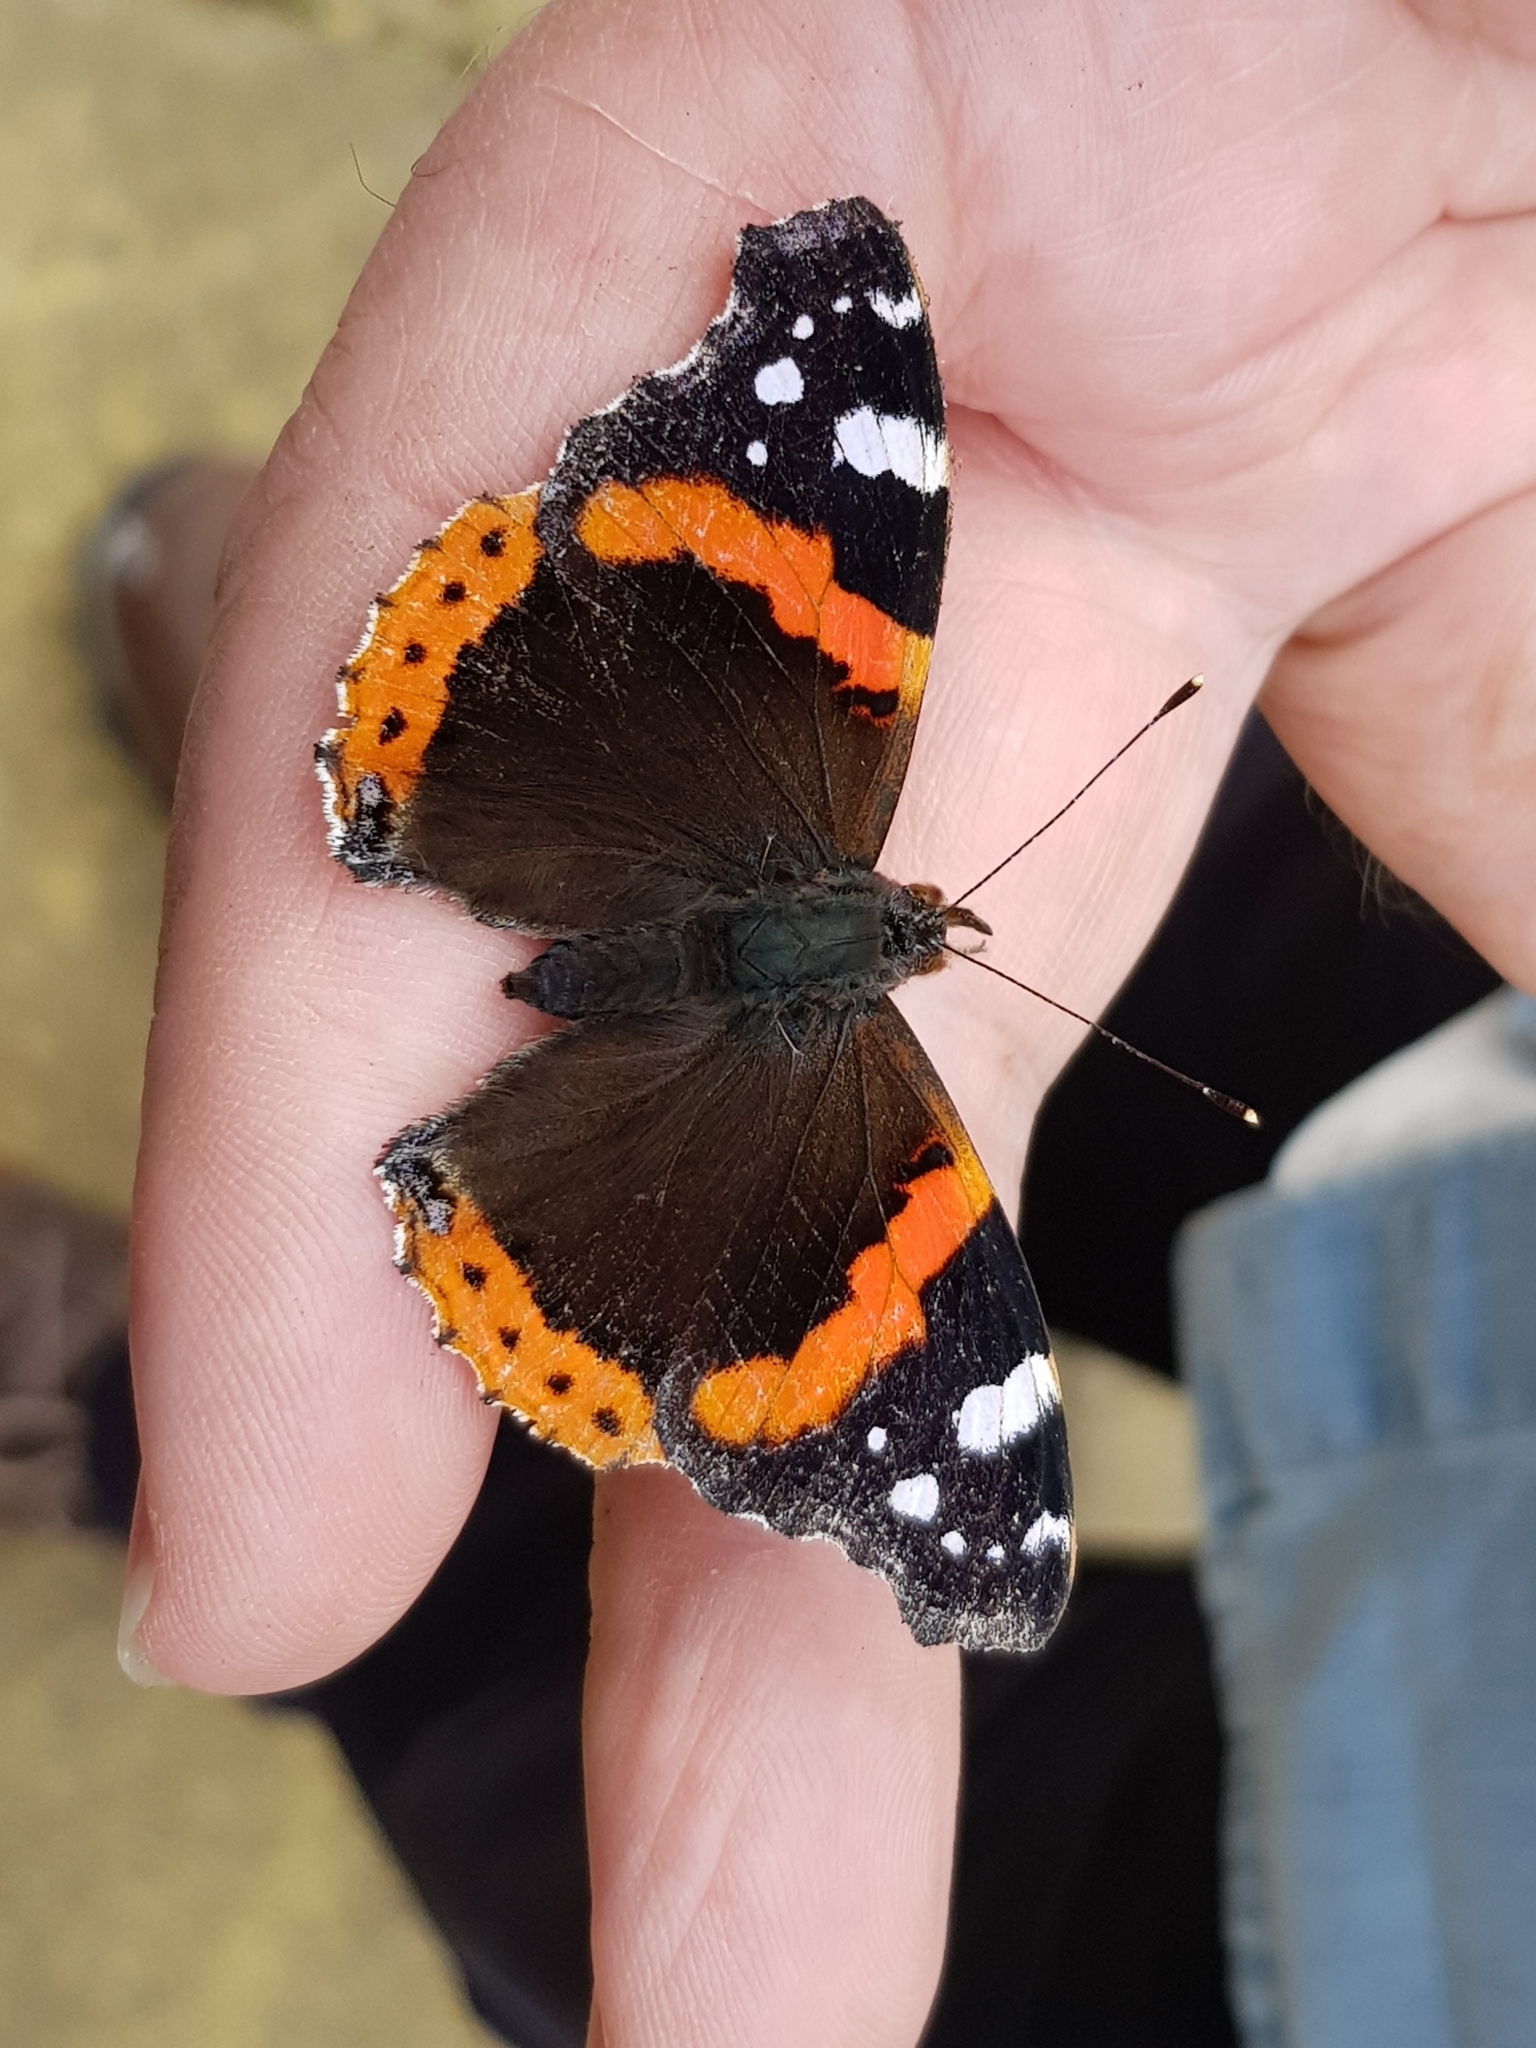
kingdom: Animalia
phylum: Arthropoda
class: Insecta
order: Lepidoptera
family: Nymphalidae
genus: Vanessa
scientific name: Vanessa atalanta
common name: Red admiral
